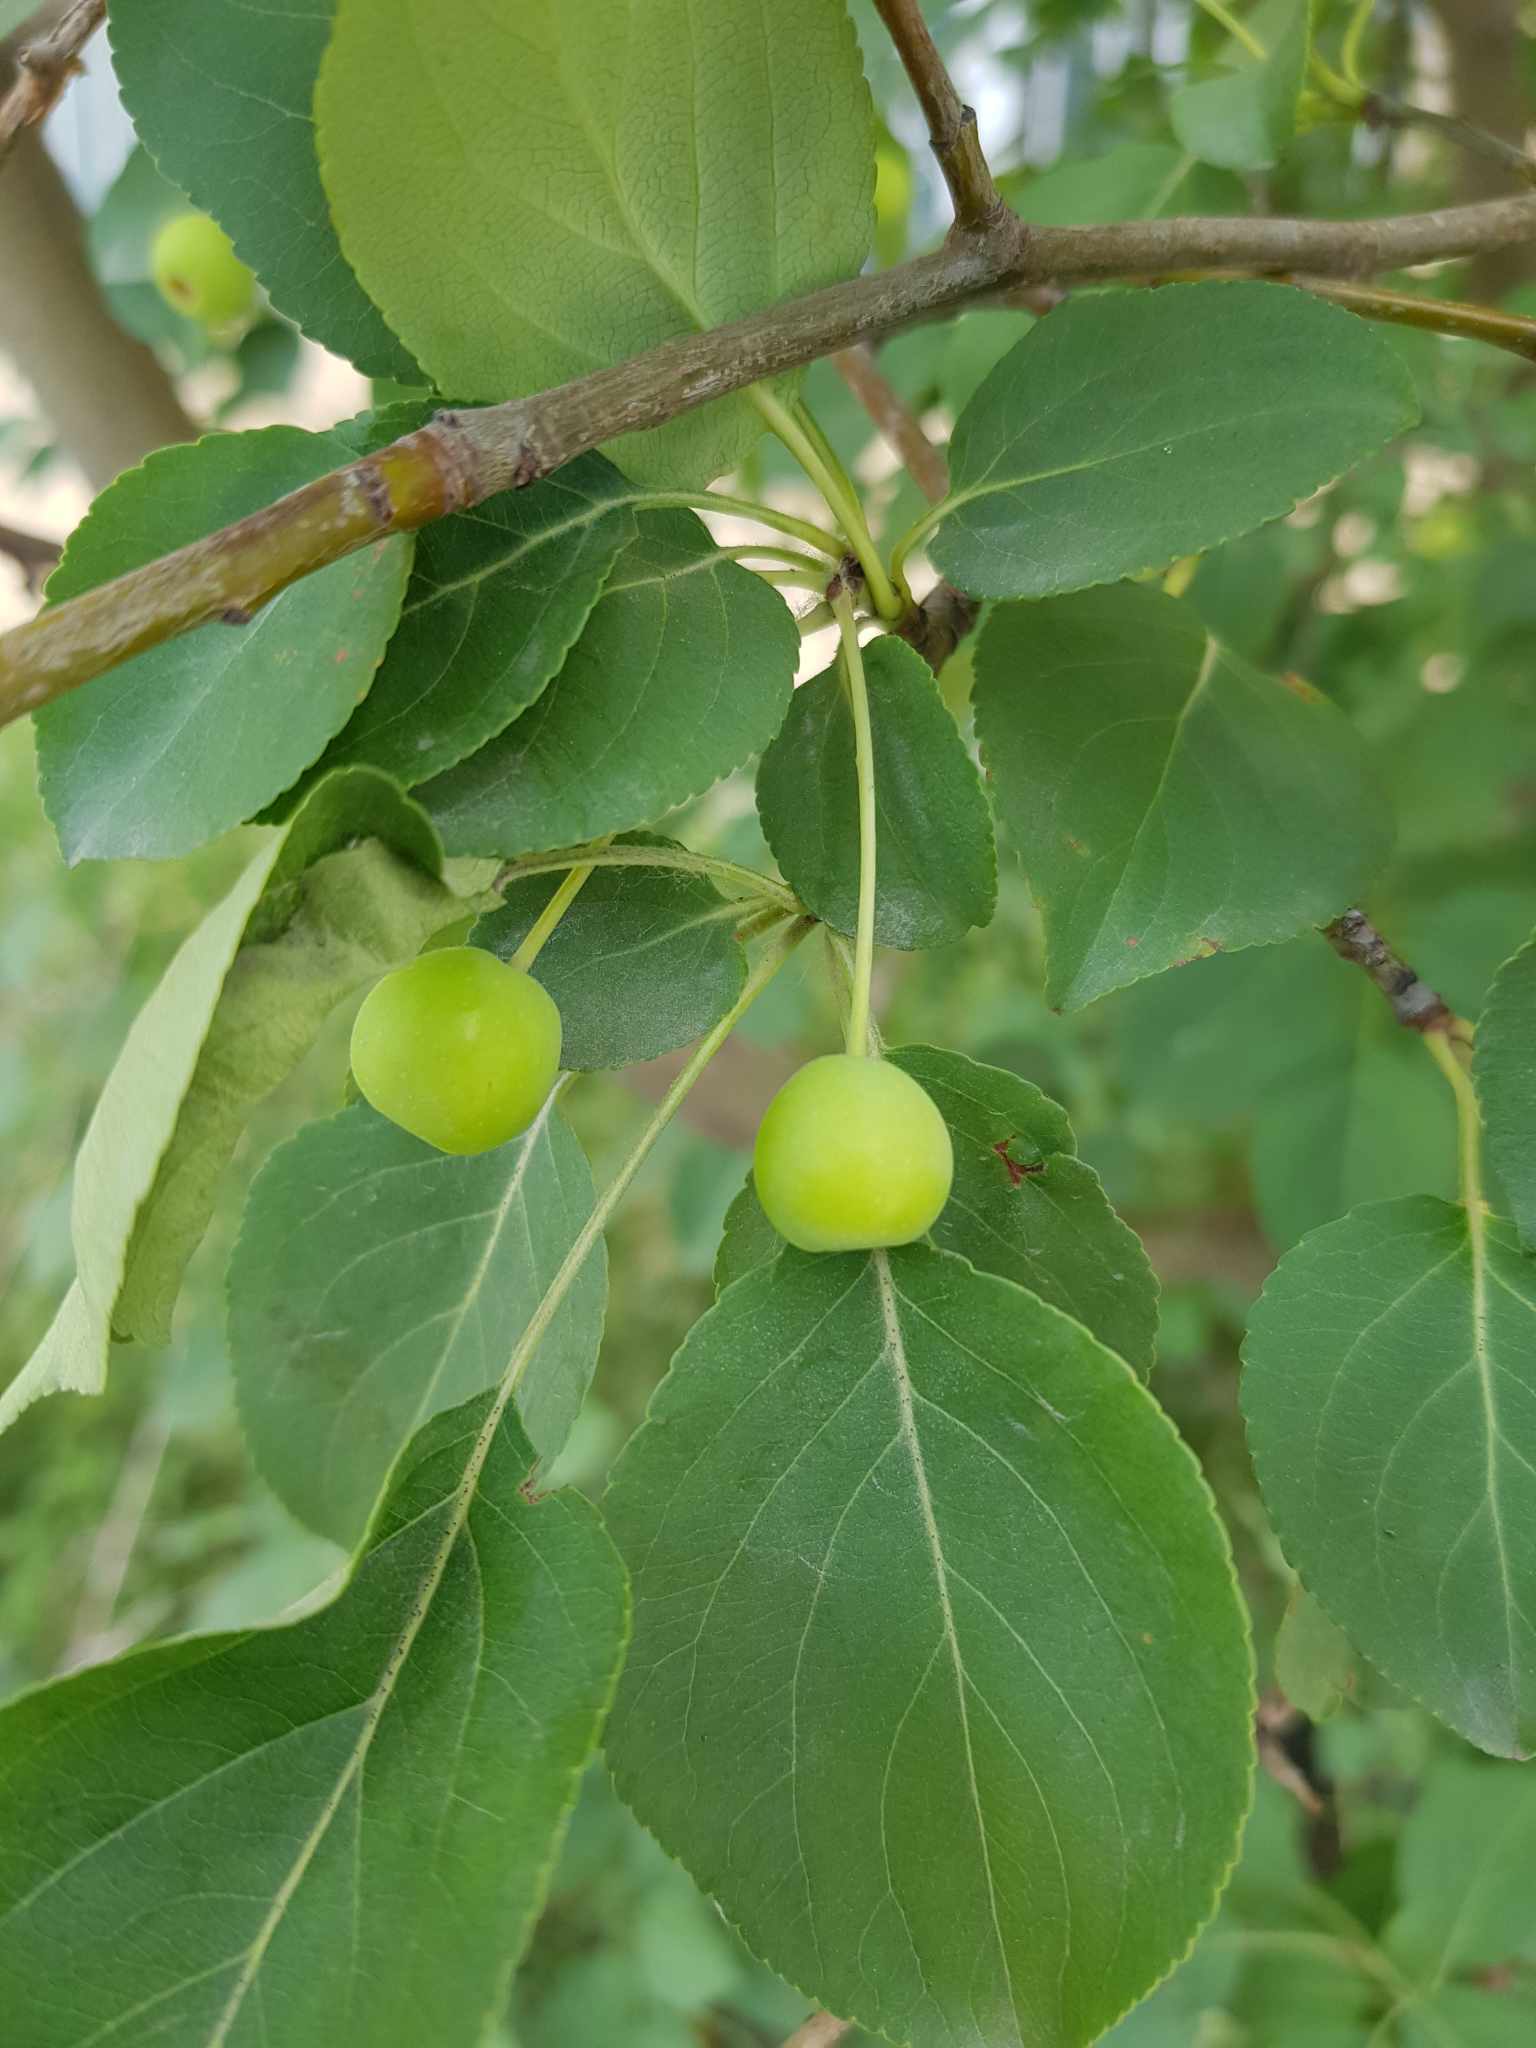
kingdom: Plantae
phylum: Tracheophyta
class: Magnoliopsida
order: Rosales
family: Rosaceae
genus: Malus
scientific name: Malus baccata
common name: Siberian crab
